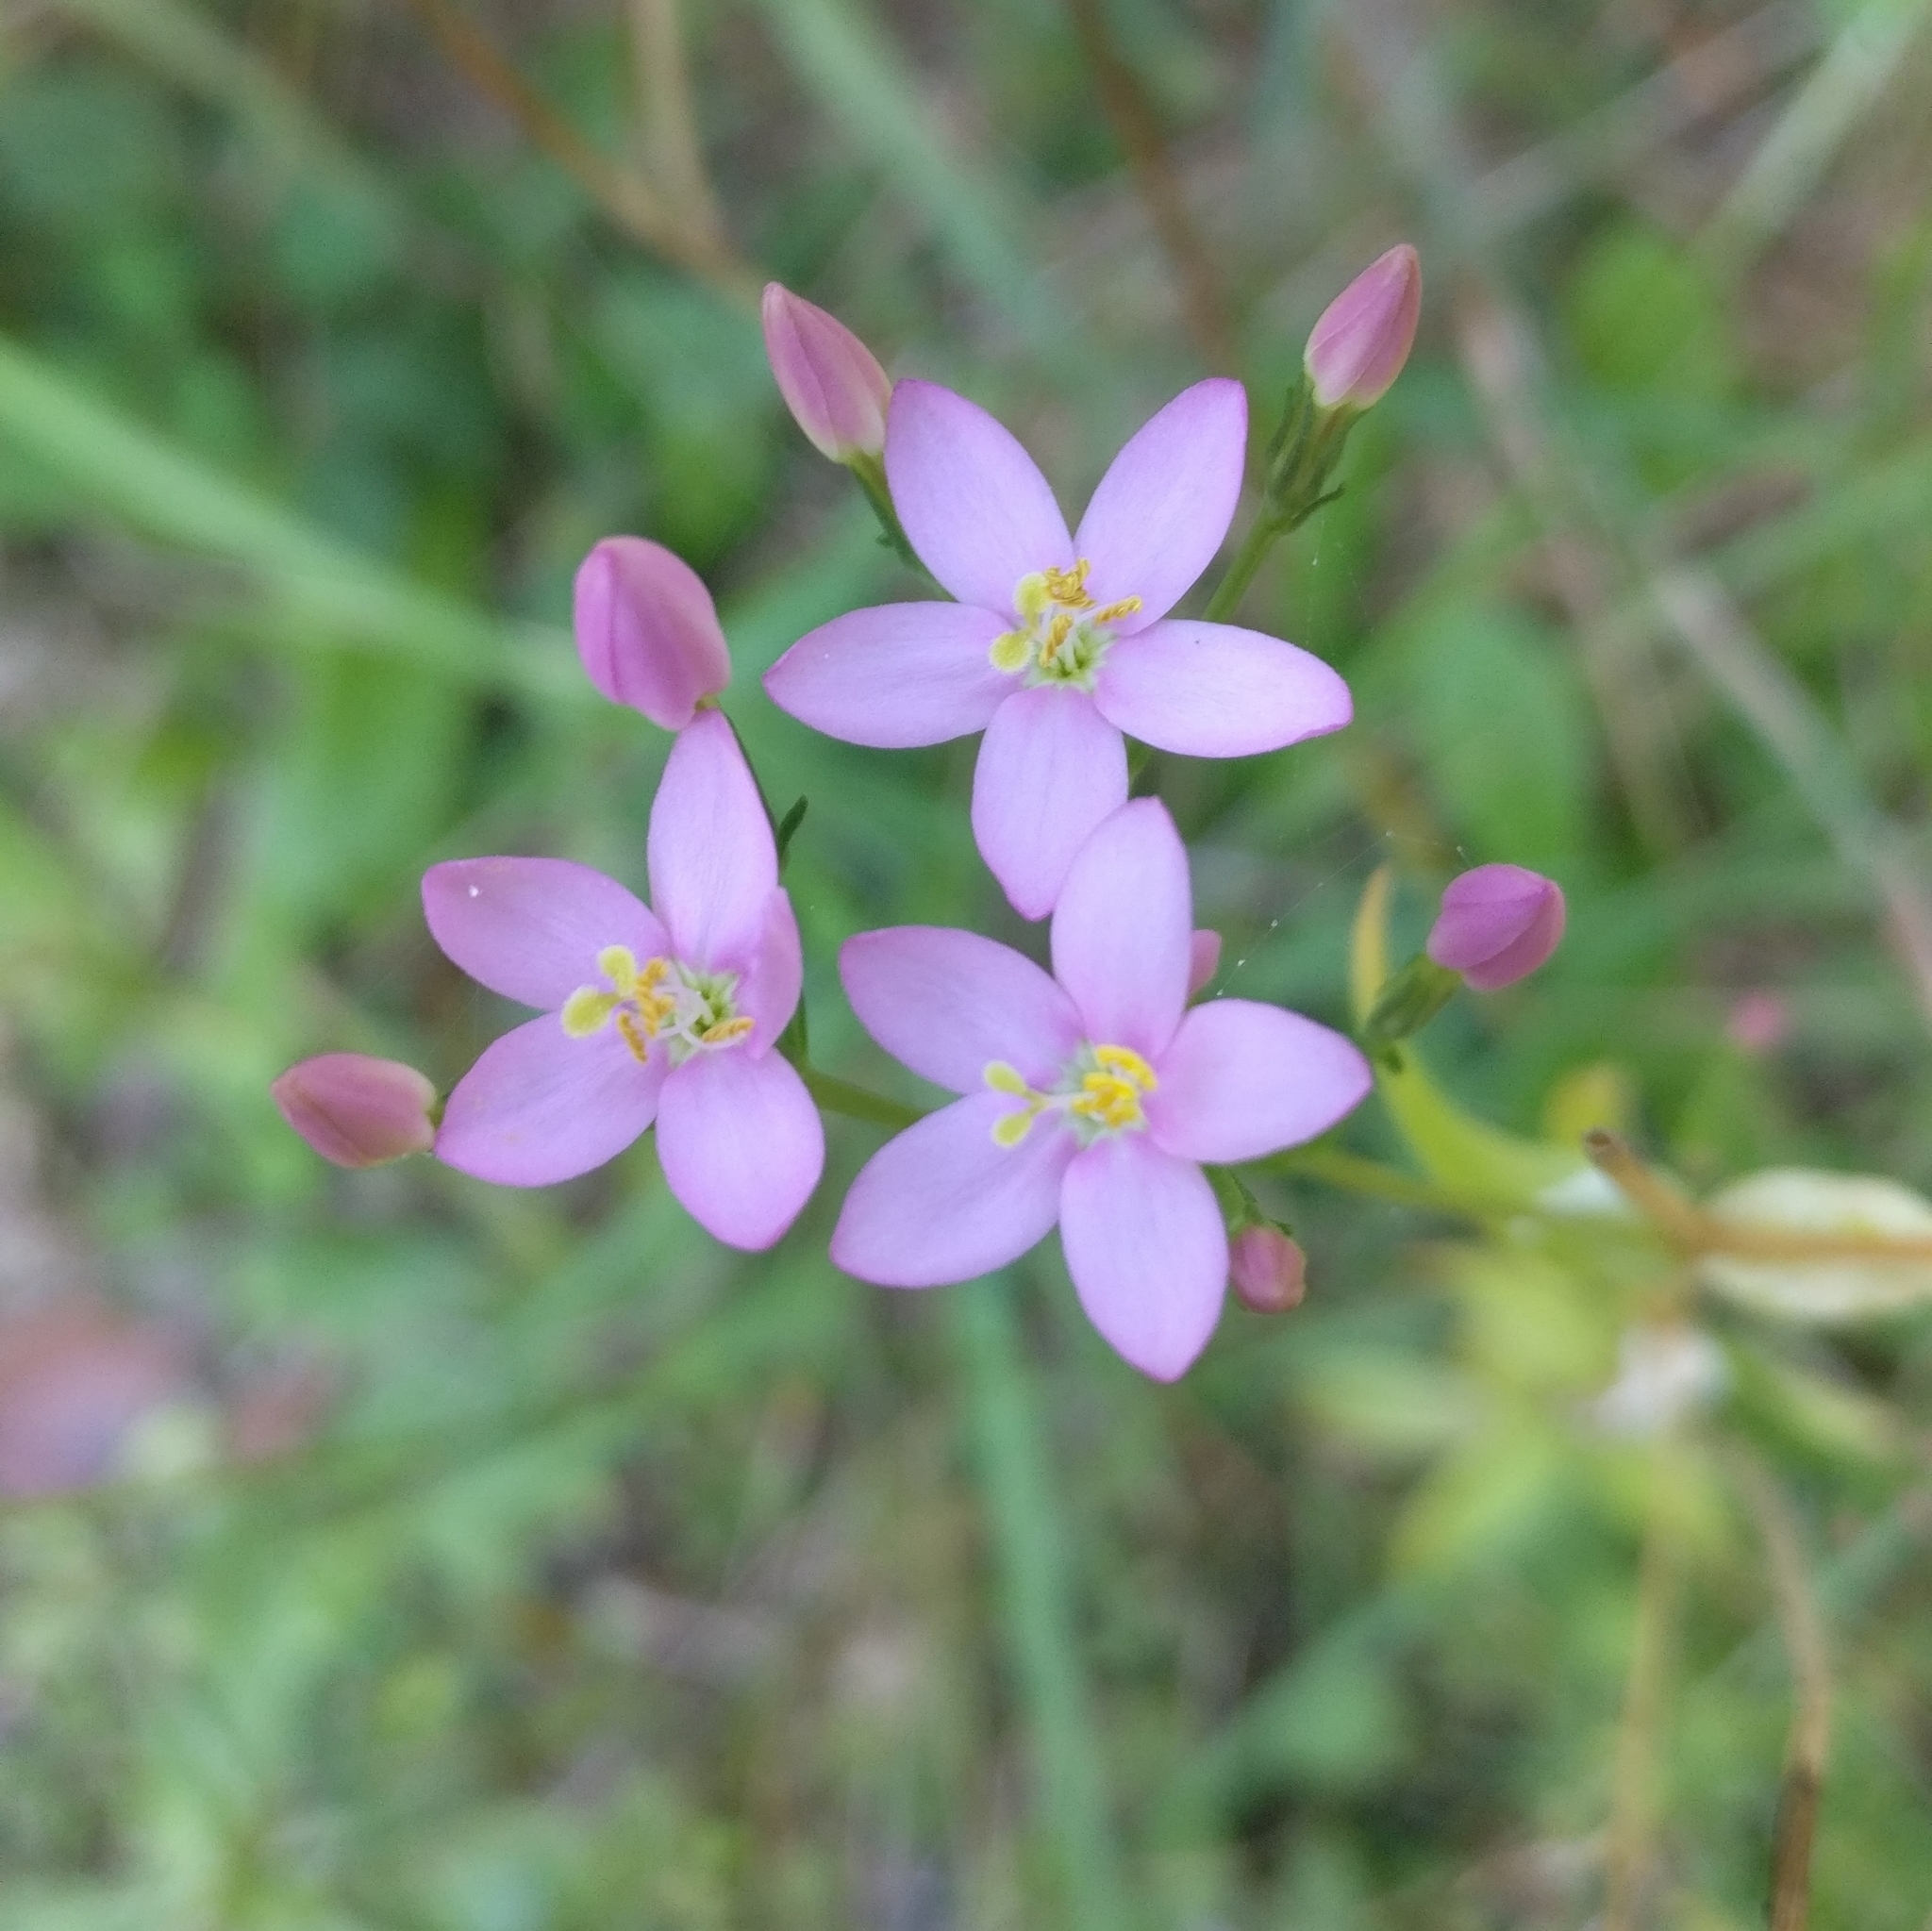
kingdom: Plantae
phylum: Tracheophyta
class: Magnoliopsida
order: Gentianales
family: Gentianaceae
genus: Centaurium
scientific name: Centaurium erythraea
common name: Common centaury
